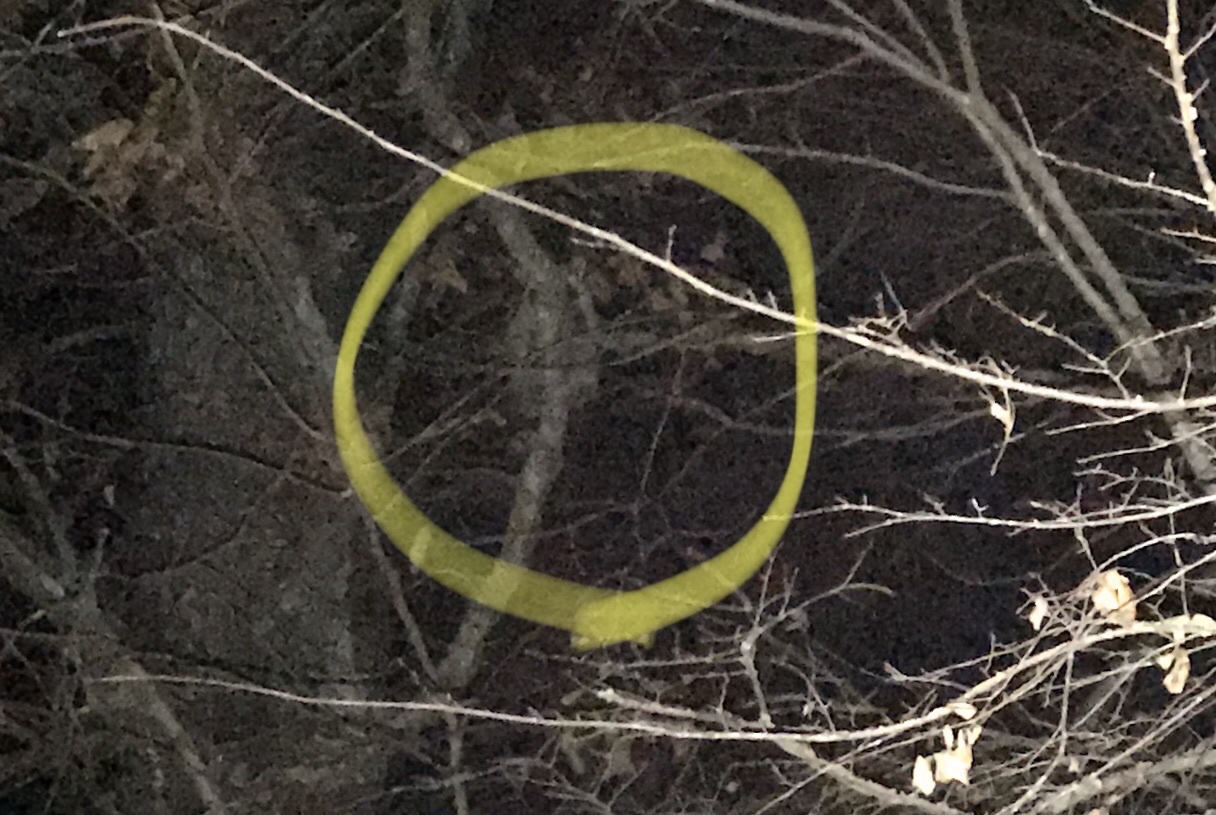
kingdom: Animalia
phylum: Chordata
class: Mammalia
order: Carnivora
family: Procyonidae
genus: Procyon
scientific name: Procyon lotor
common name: Raccoon
